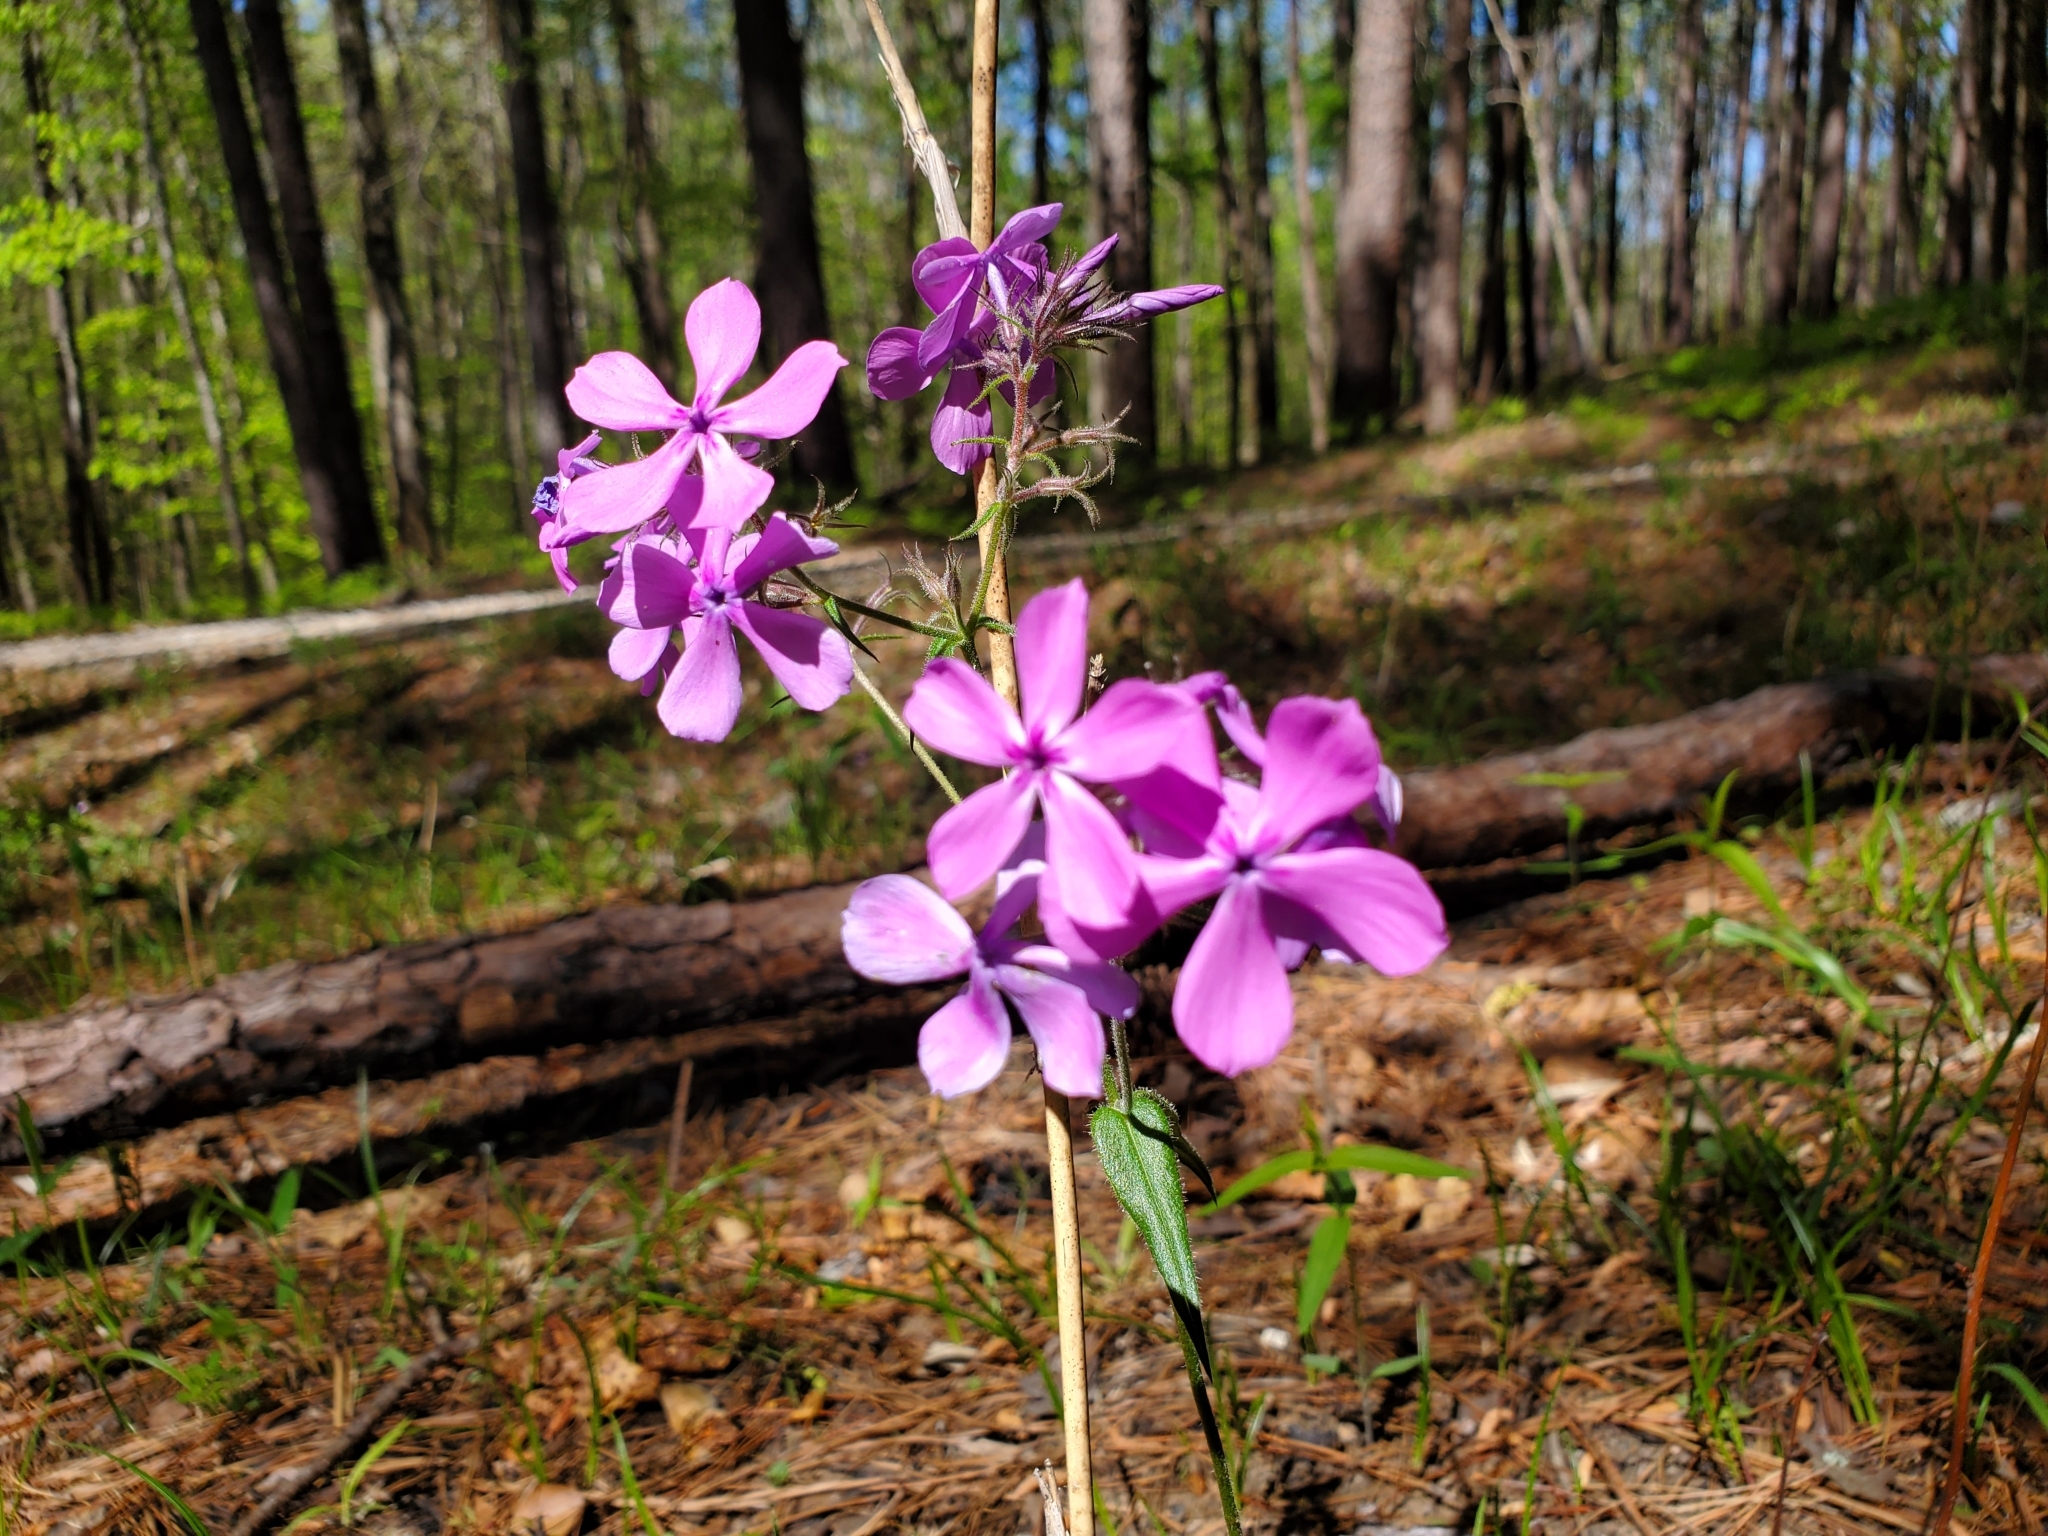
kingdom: Plantae
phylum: Tracheophyta
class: Magnoliopsida
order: Ericales
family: Polemoniaceae
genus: Phlox
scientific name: Phlox pilosa
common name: Prairie phlox
